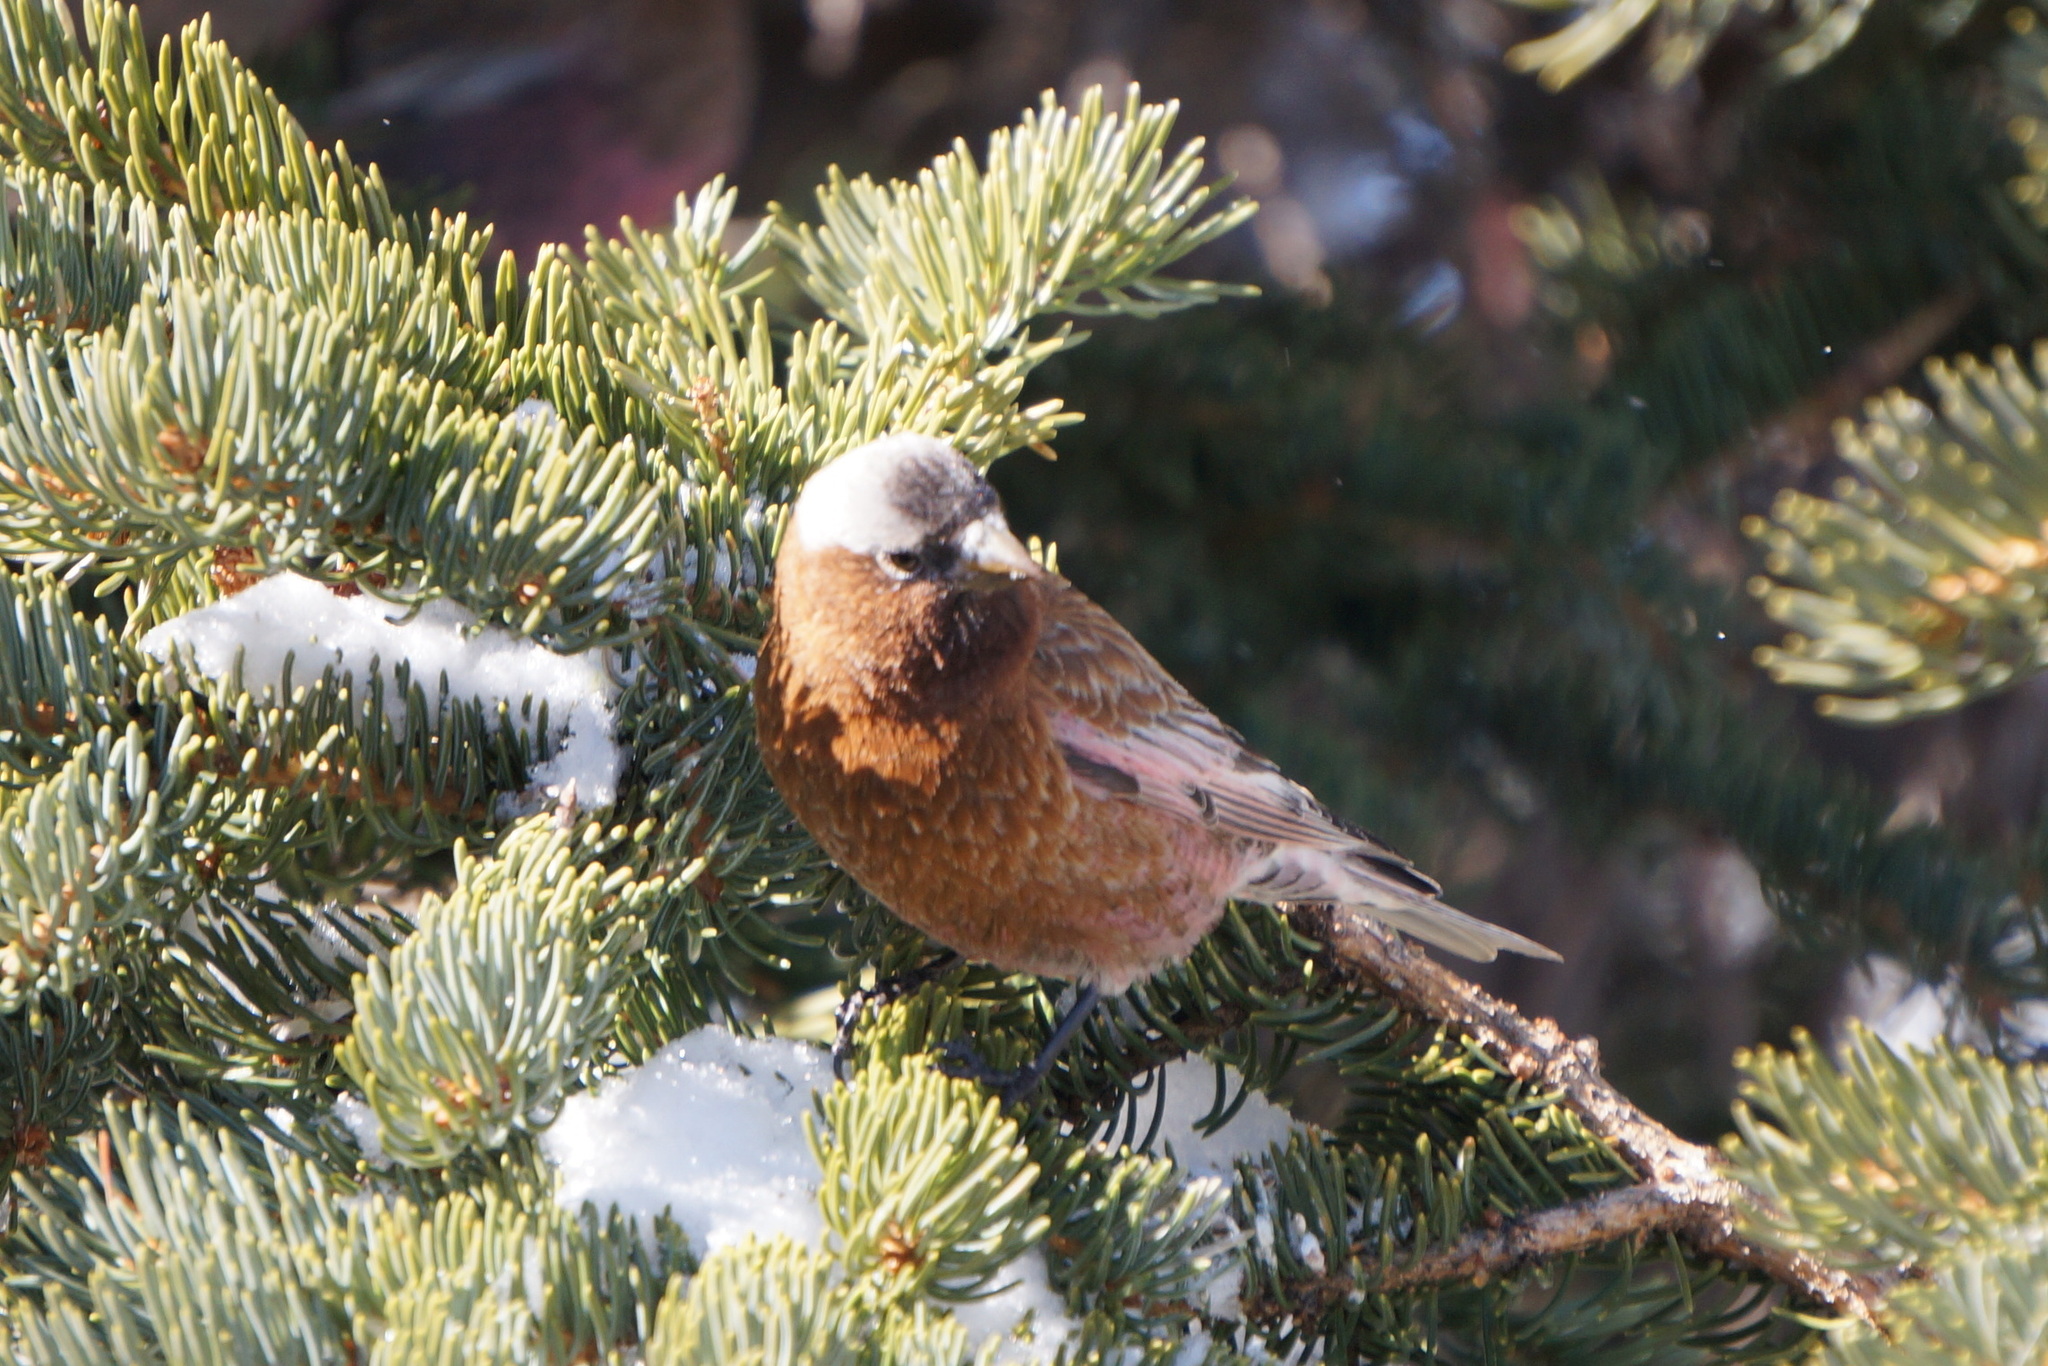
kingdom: Animalia
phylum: Chordata
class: Aves
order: Passeriformes
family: Fringillidae
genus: Leucosticte
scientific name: Leucosticte tephrocotis
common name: Gray-crowned rosy-finch
